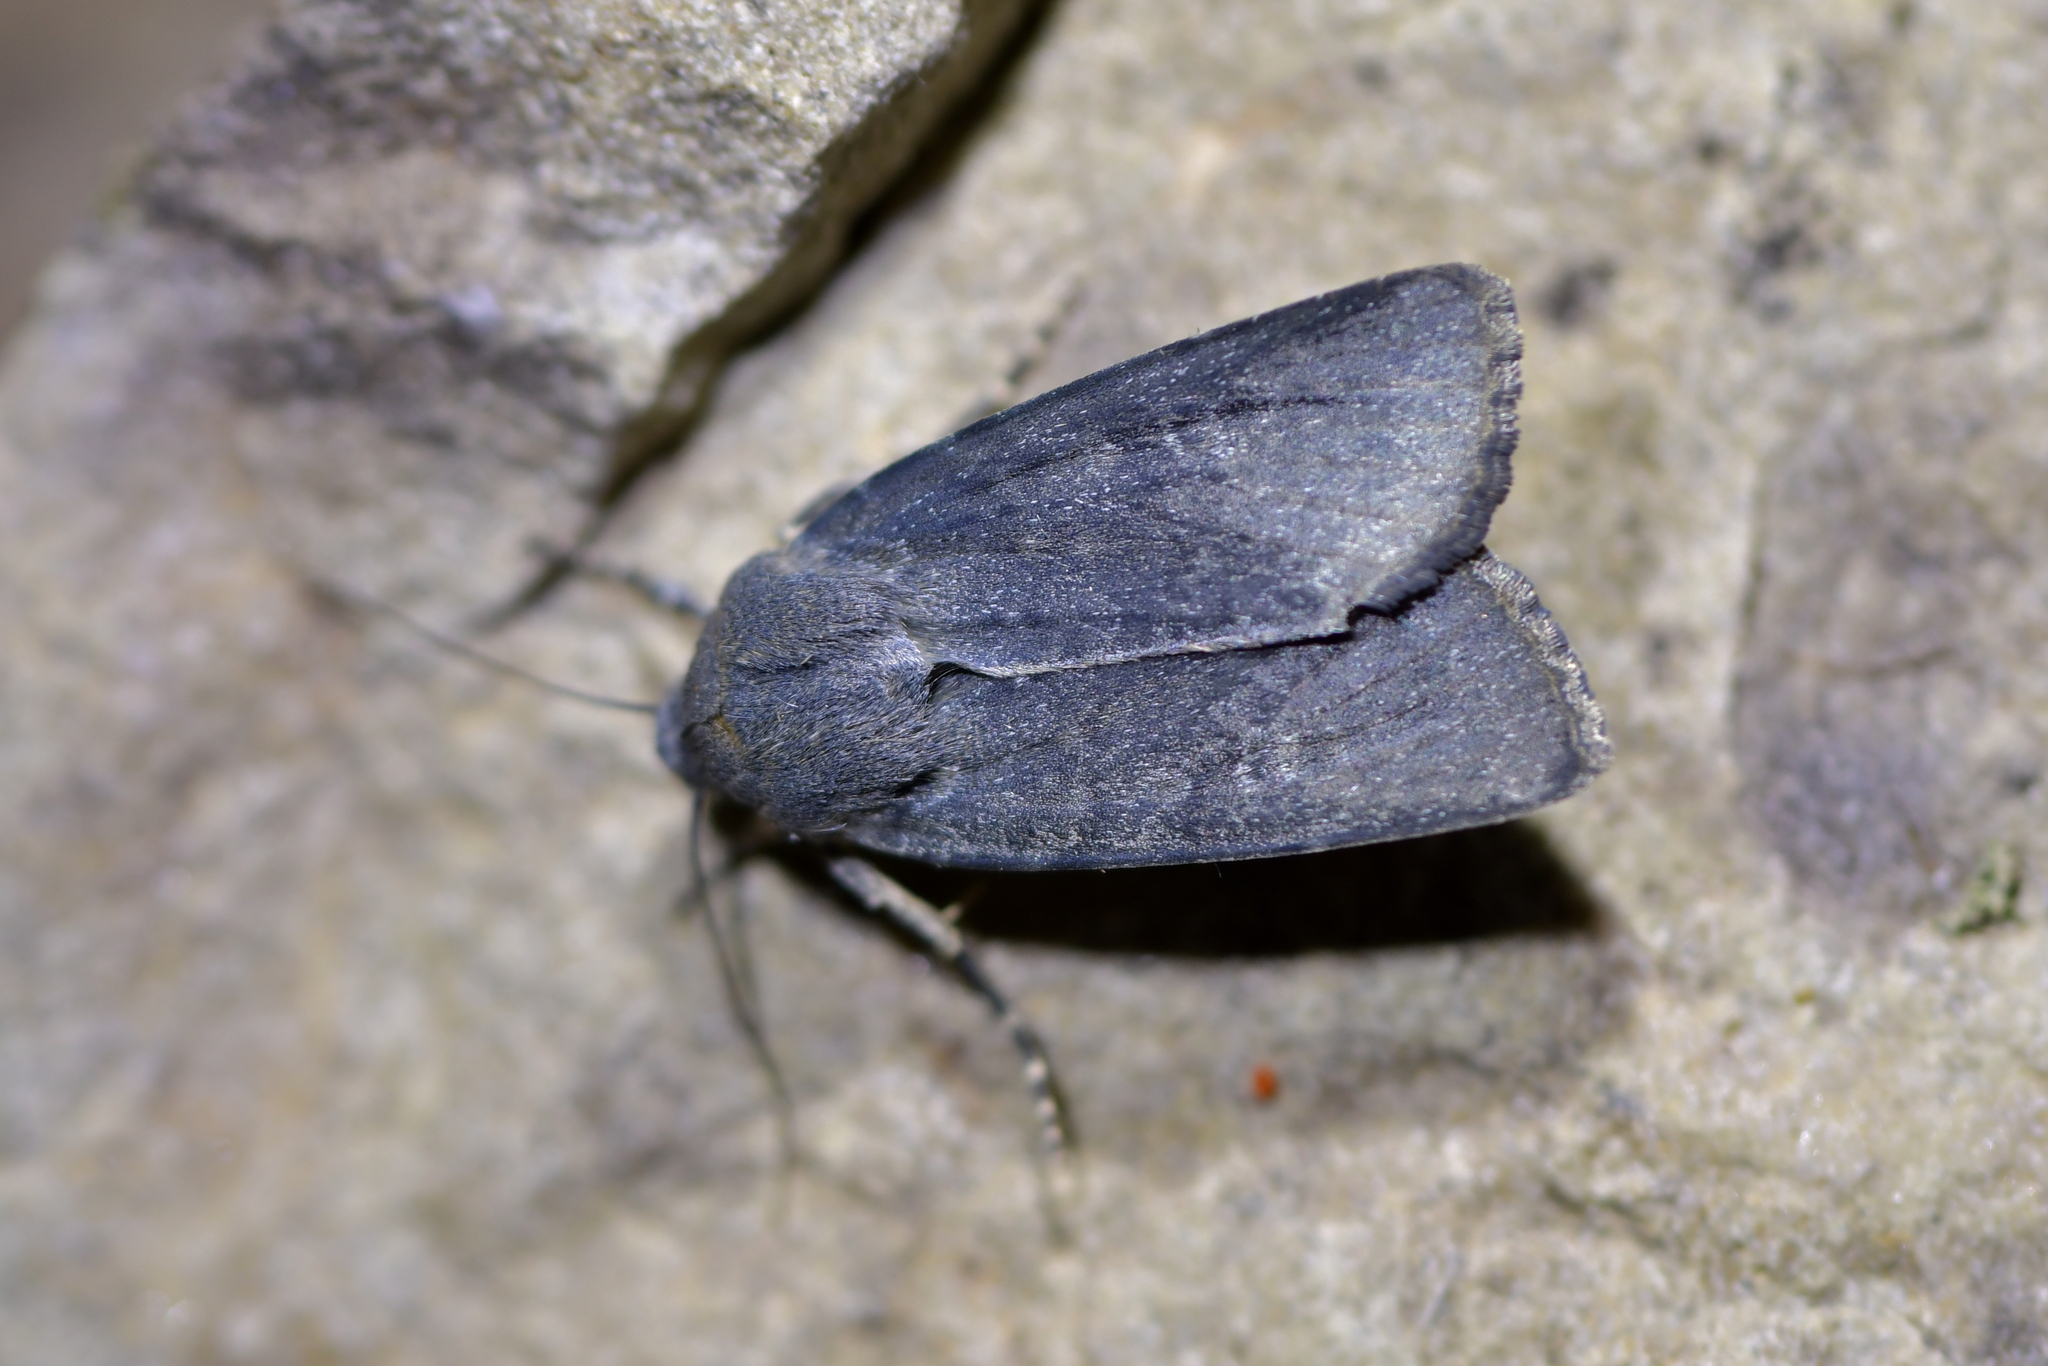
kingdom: Animalia
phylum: Arthropoda
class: Insecta
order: Lepidoptera
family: Noctuidae
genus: Physetica
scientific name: Physetica caerulea
